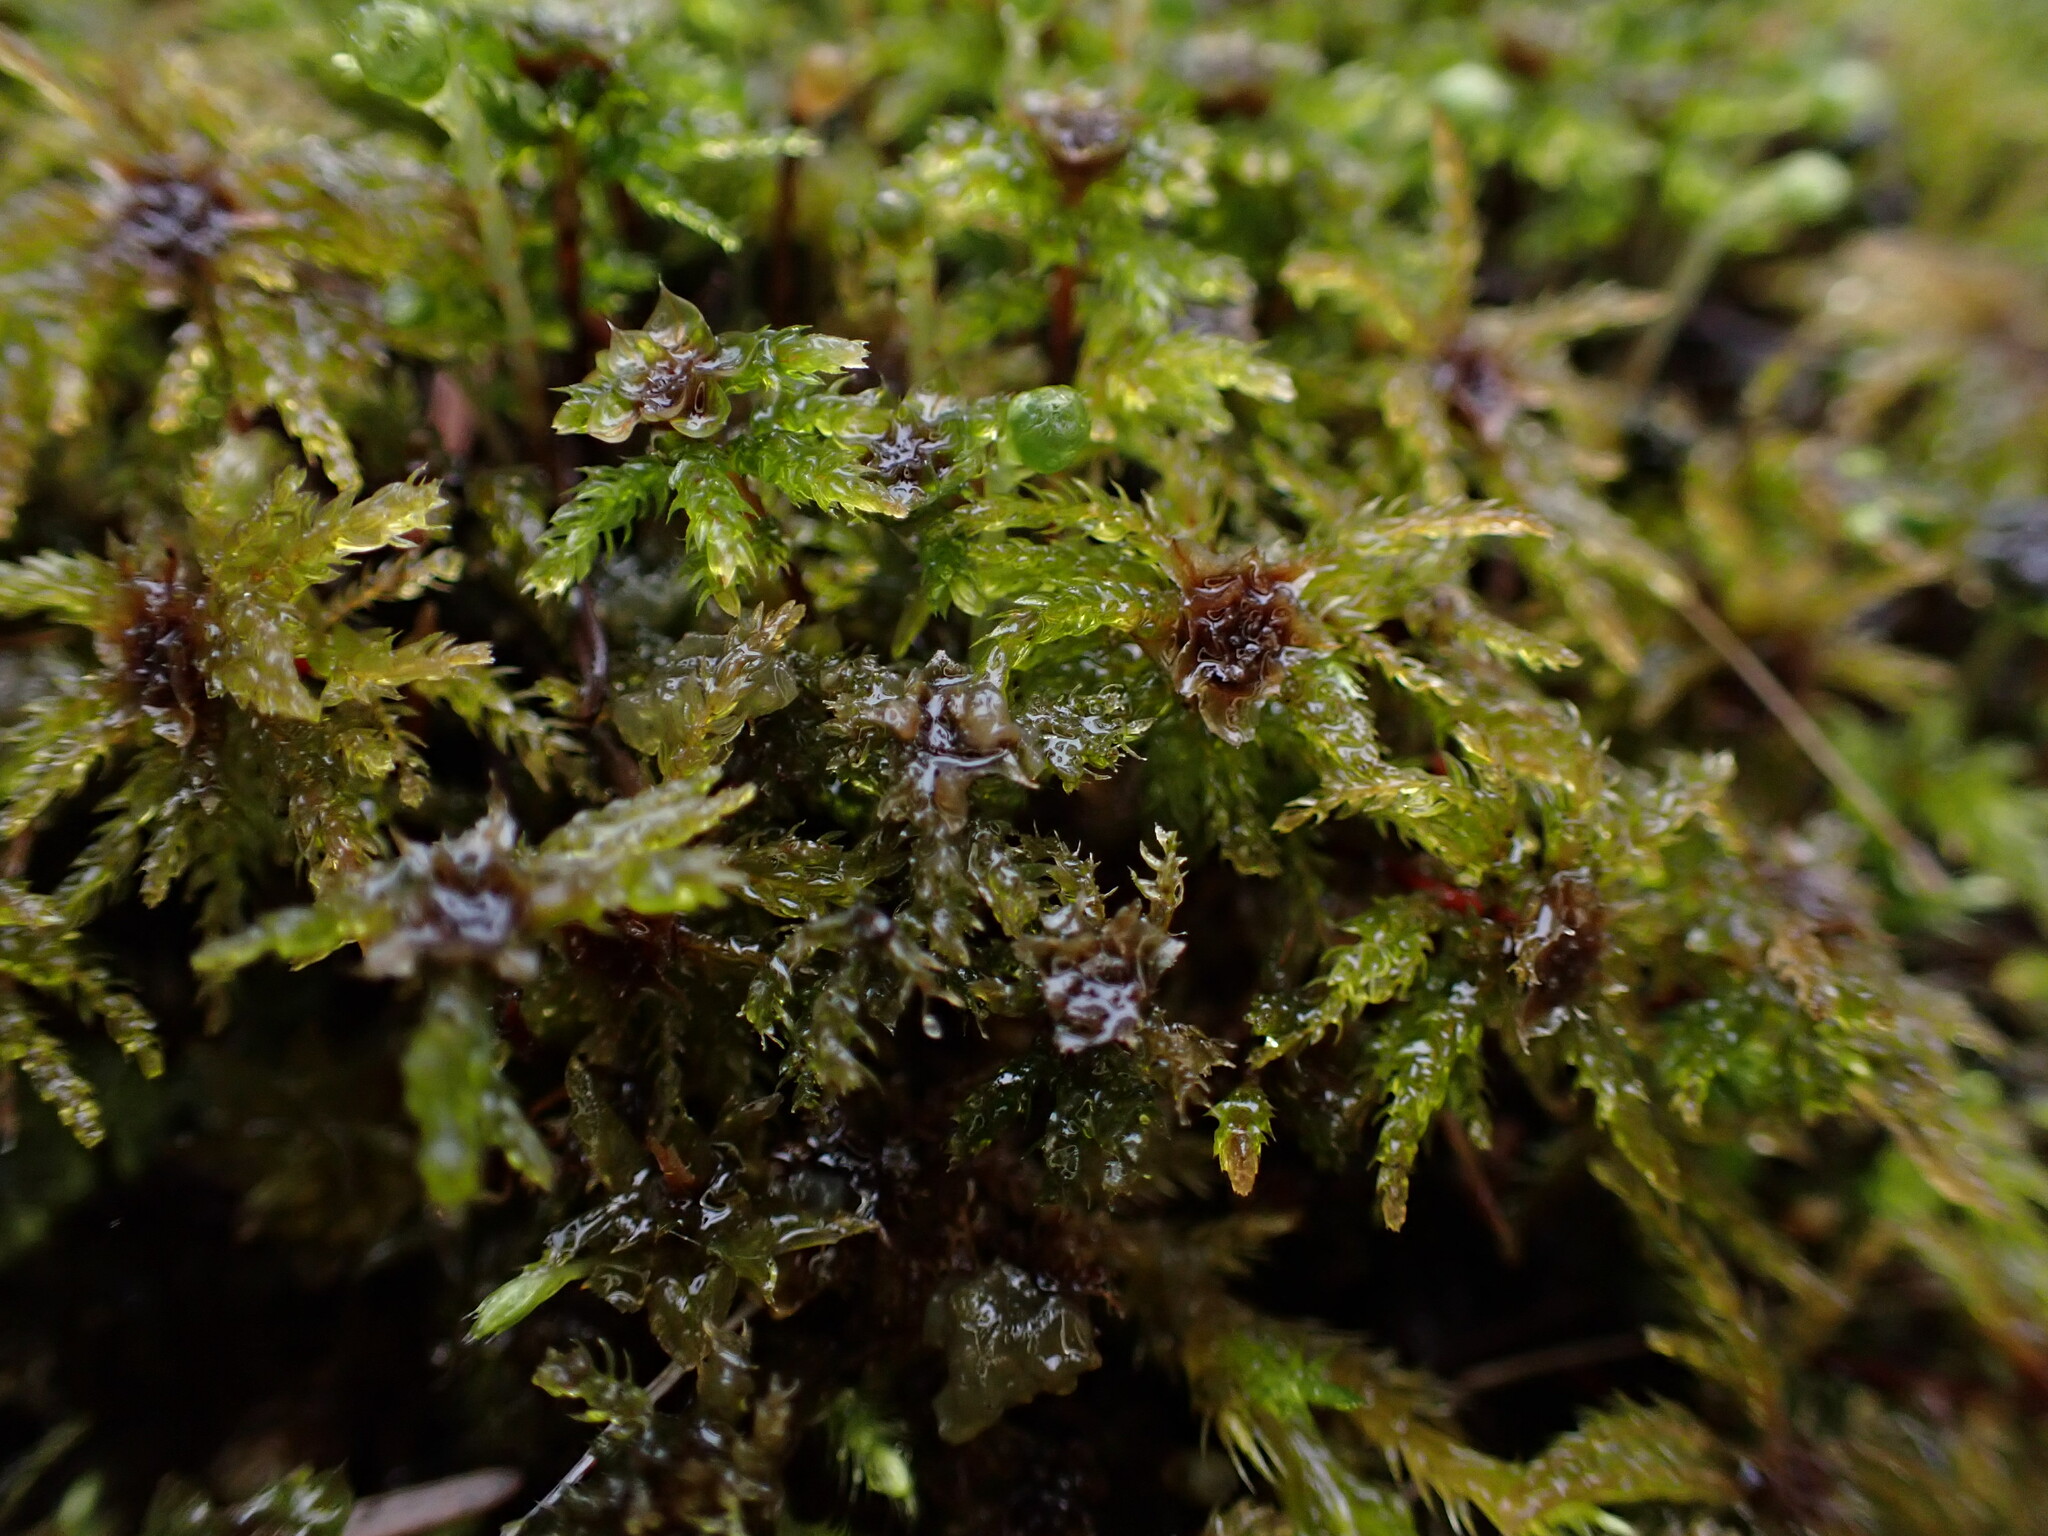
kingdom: Plantae
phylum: Bryophyta
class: Bryopsida
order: Bryales
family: Mniaceae
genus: Leucolepis
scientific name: Leucolepis acanthoneura
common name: Leucolepis umbrella moss
